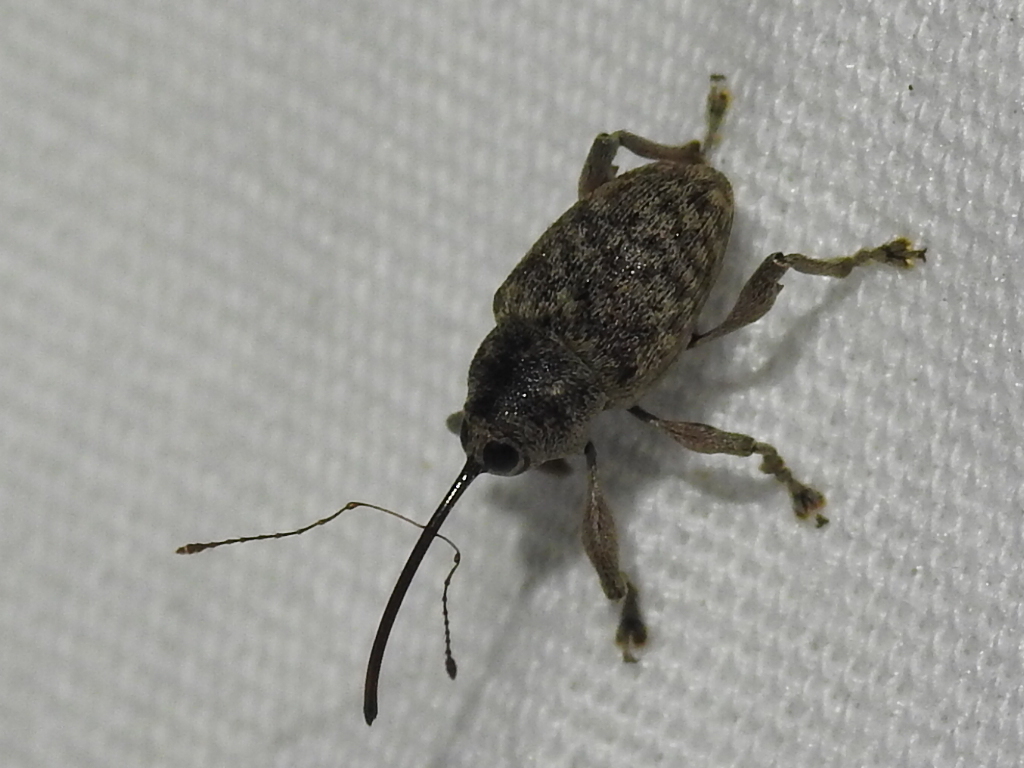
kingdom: Animalia
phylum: Arthropoda
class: Insecta
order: Coleoptera
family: Curculionidae
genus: Curculio
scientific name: Curculio
